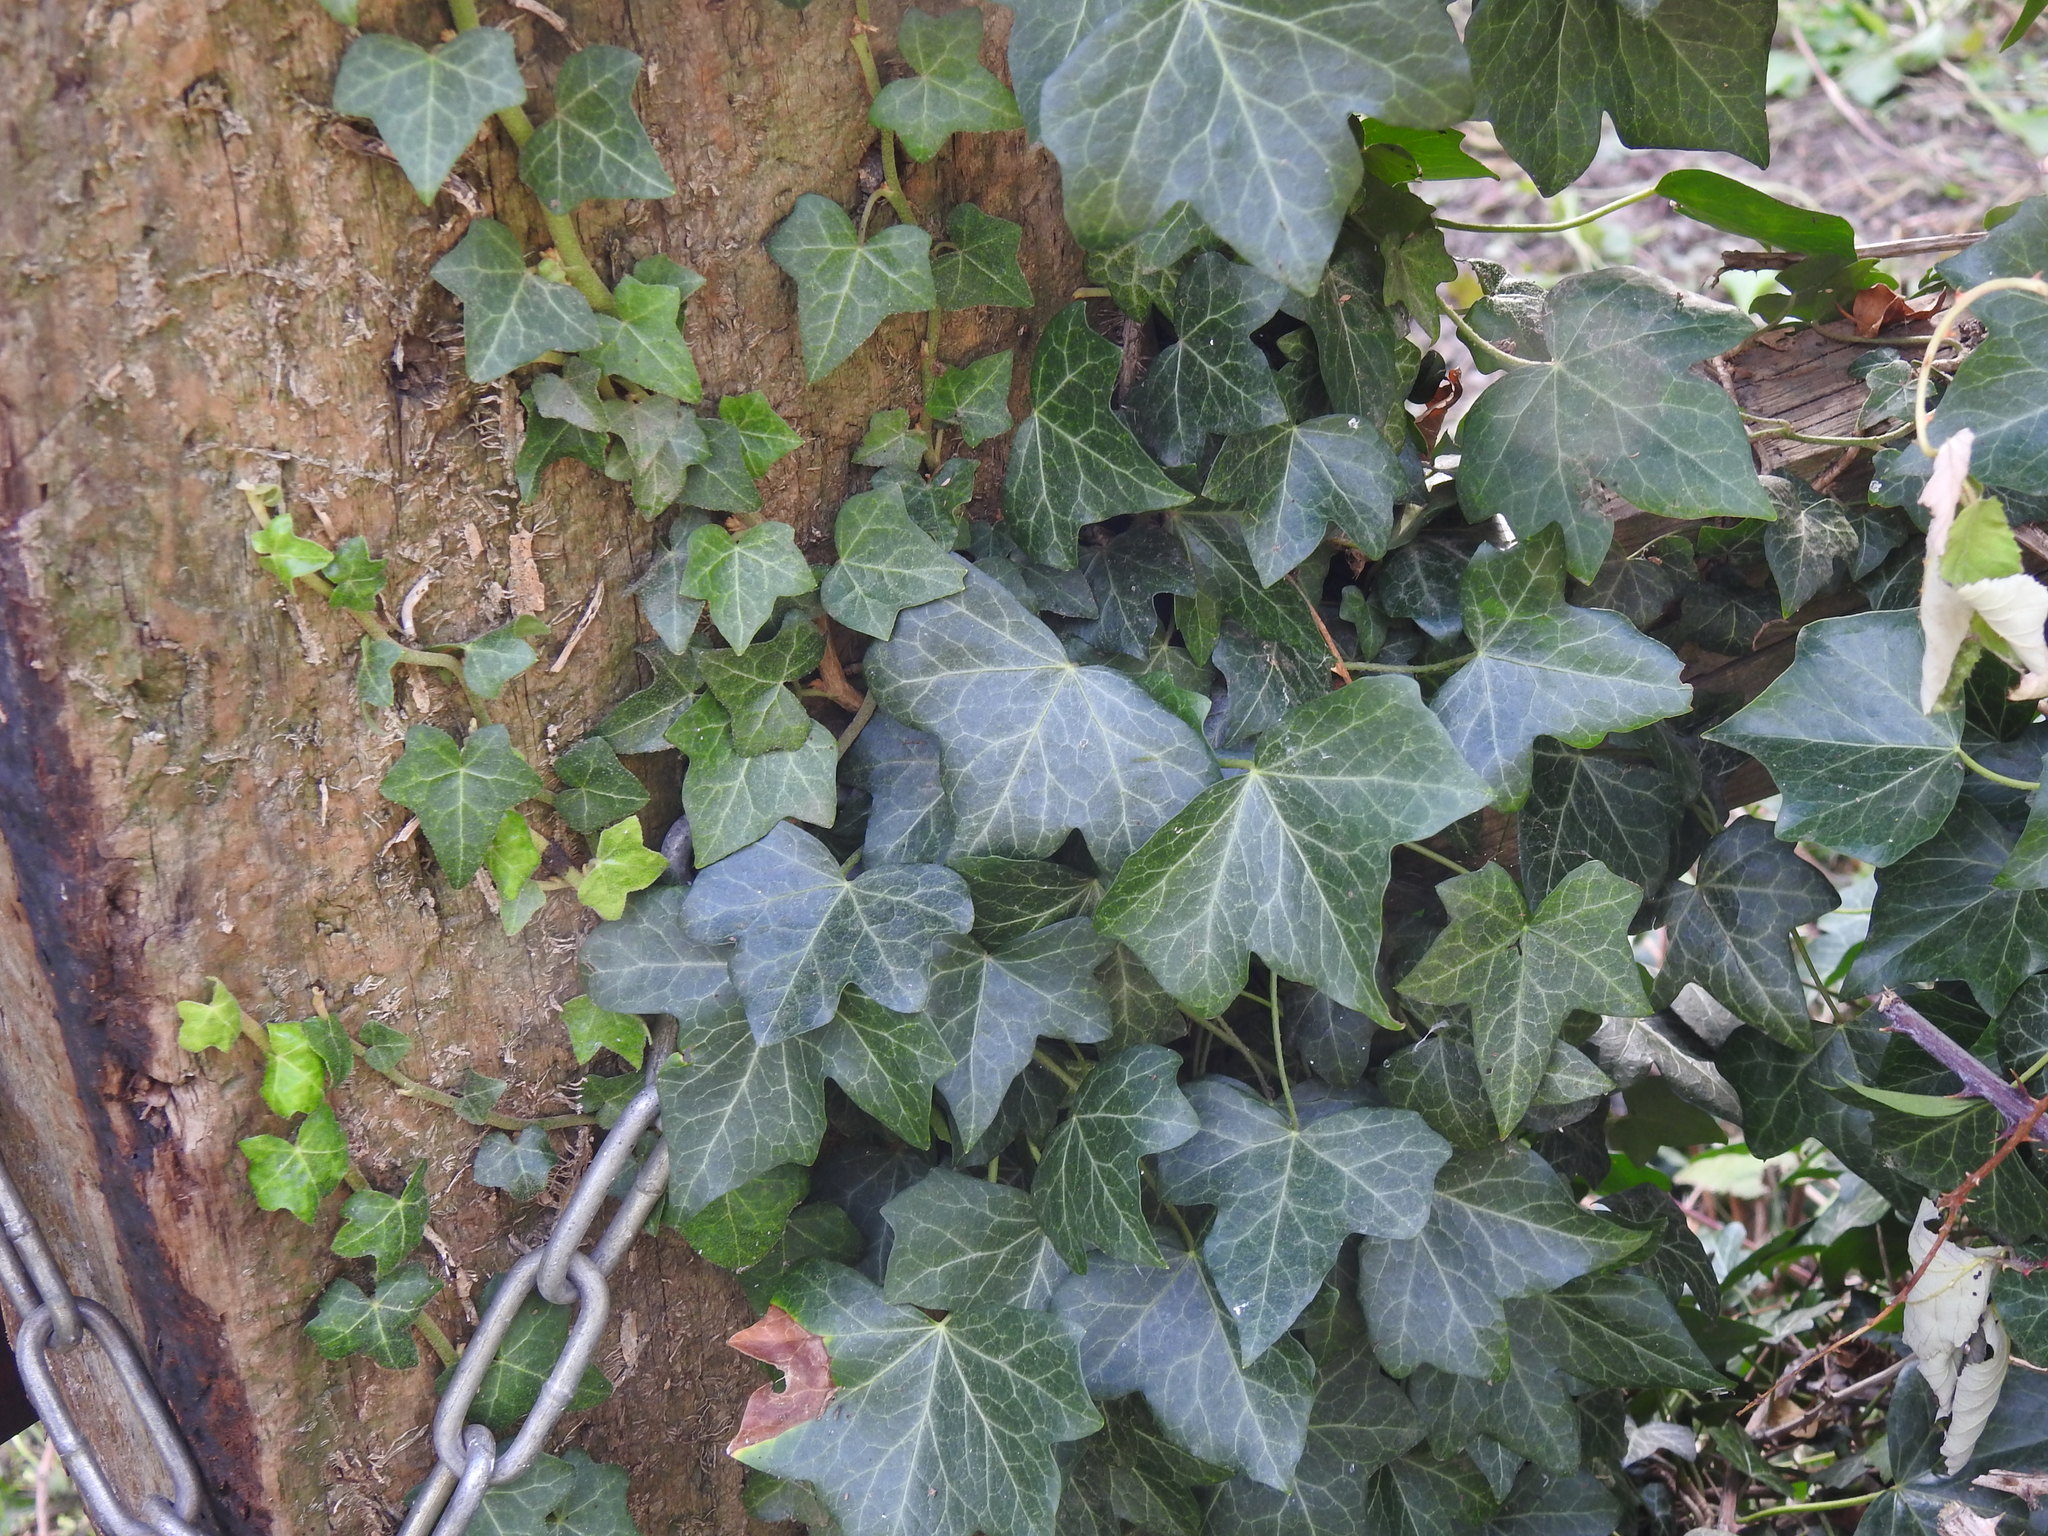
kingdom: Plantae
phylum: Tracheophyta
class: Magnoliopsida
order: Apiales
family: Araliaceae
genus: Hedera
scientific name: Hedera helix
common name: Ivy
